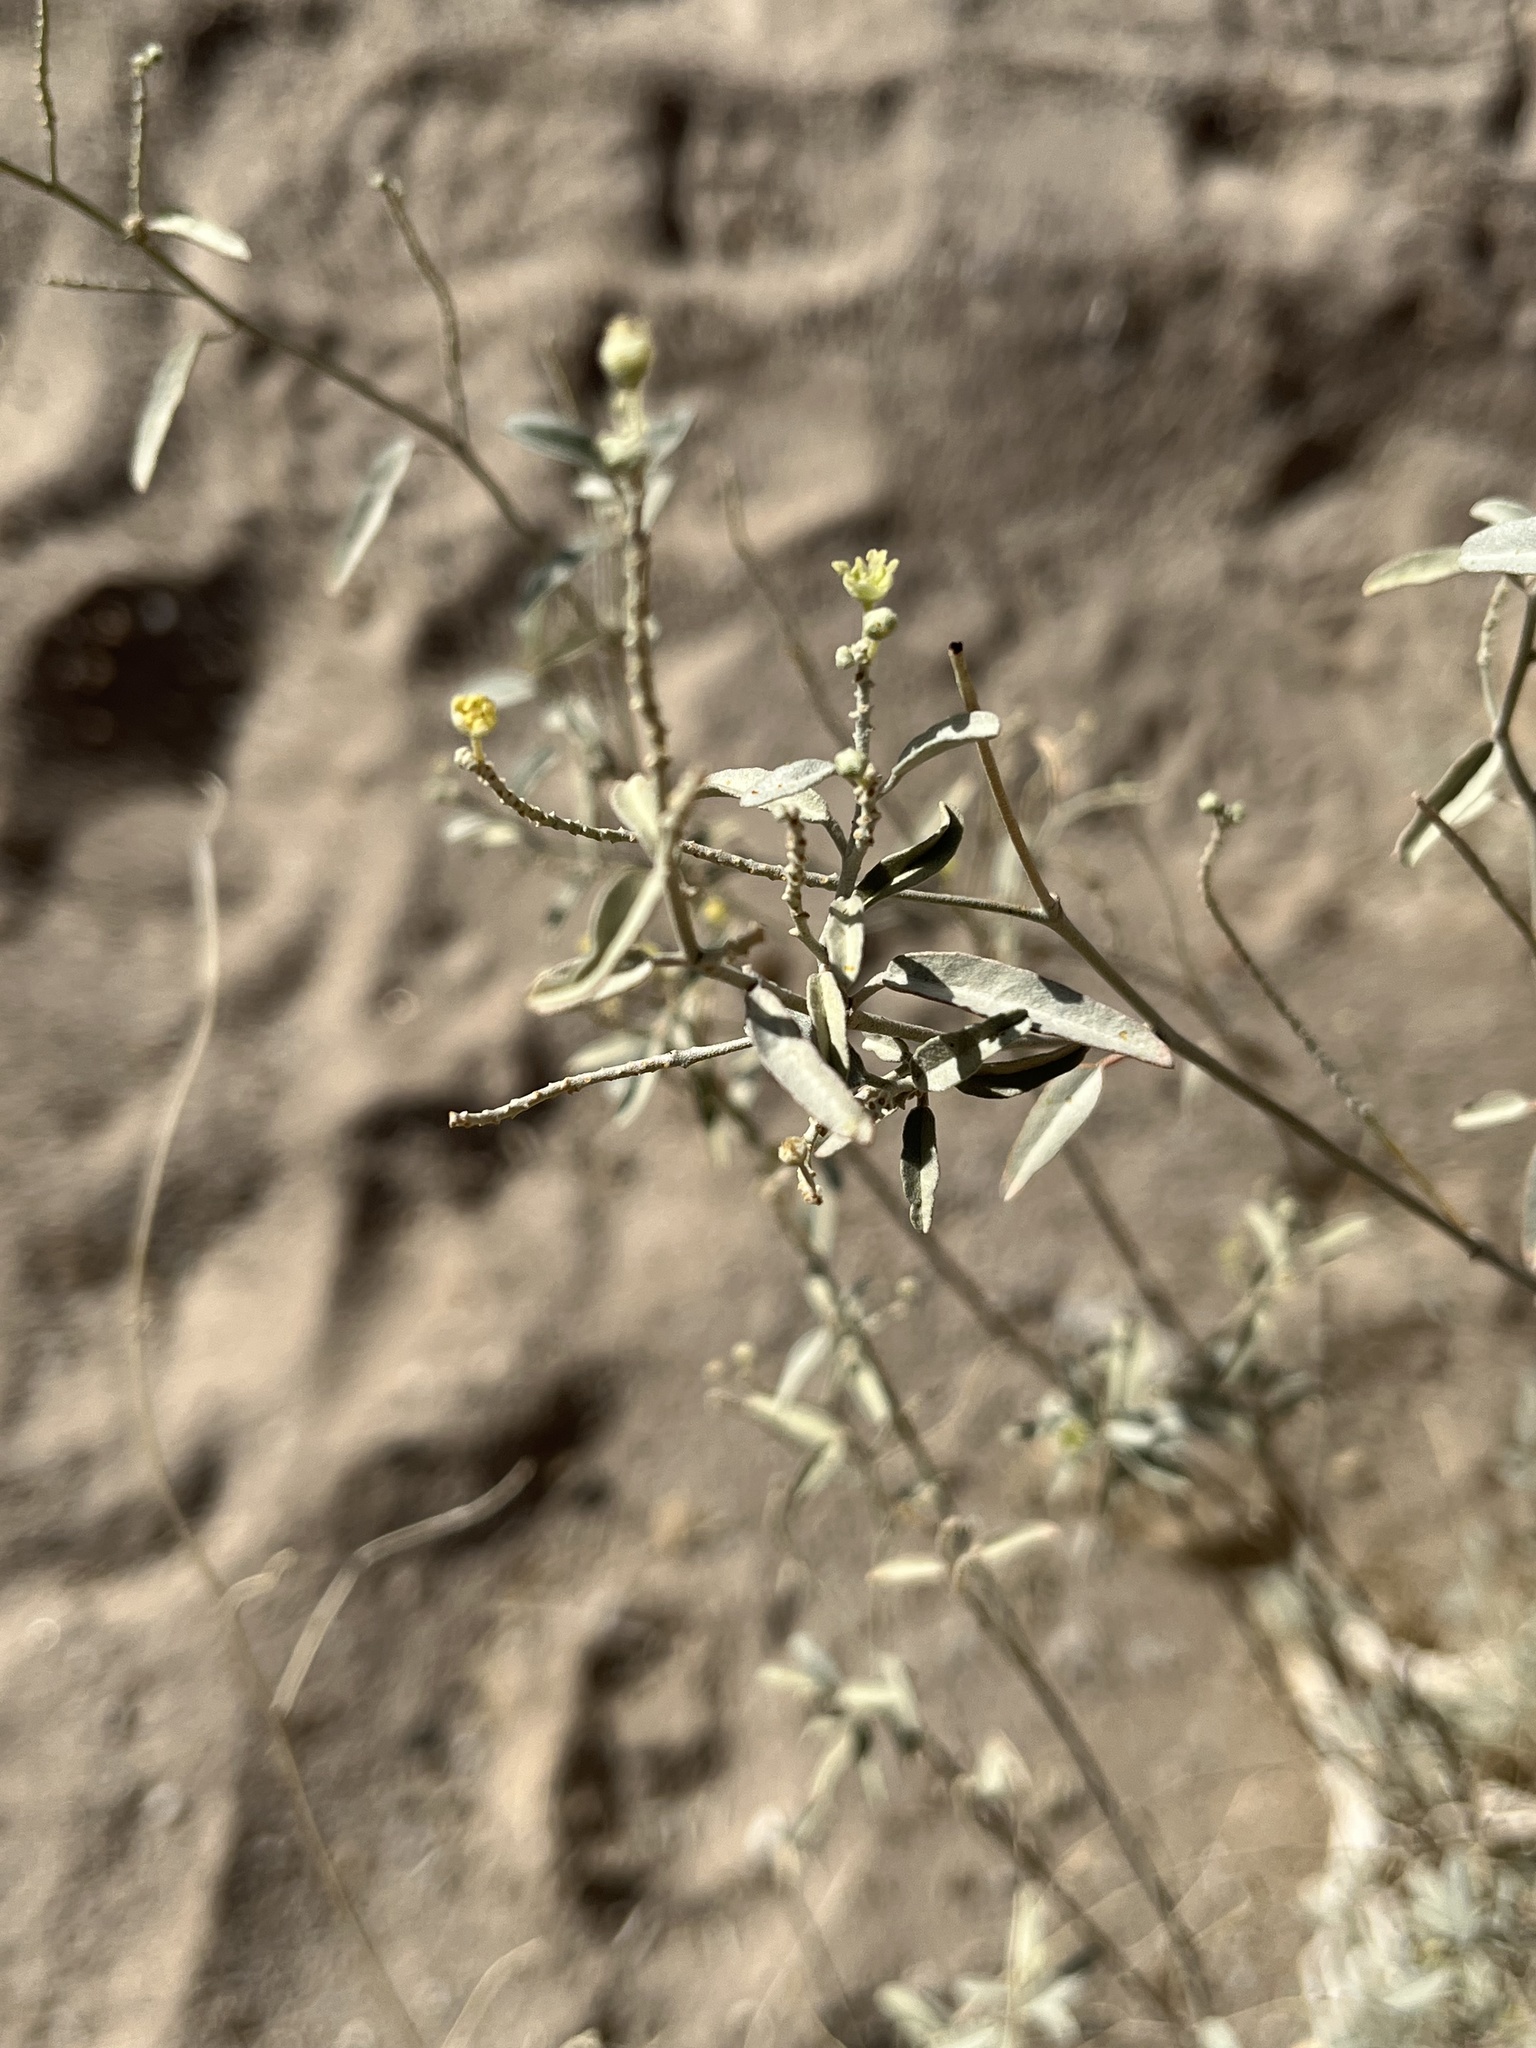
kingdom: Plantae
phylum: Tracheophyta
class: Magnoliopsida
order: Malpighiales
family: Euphorbiaceae
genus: Croton
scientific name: Croton californicus
